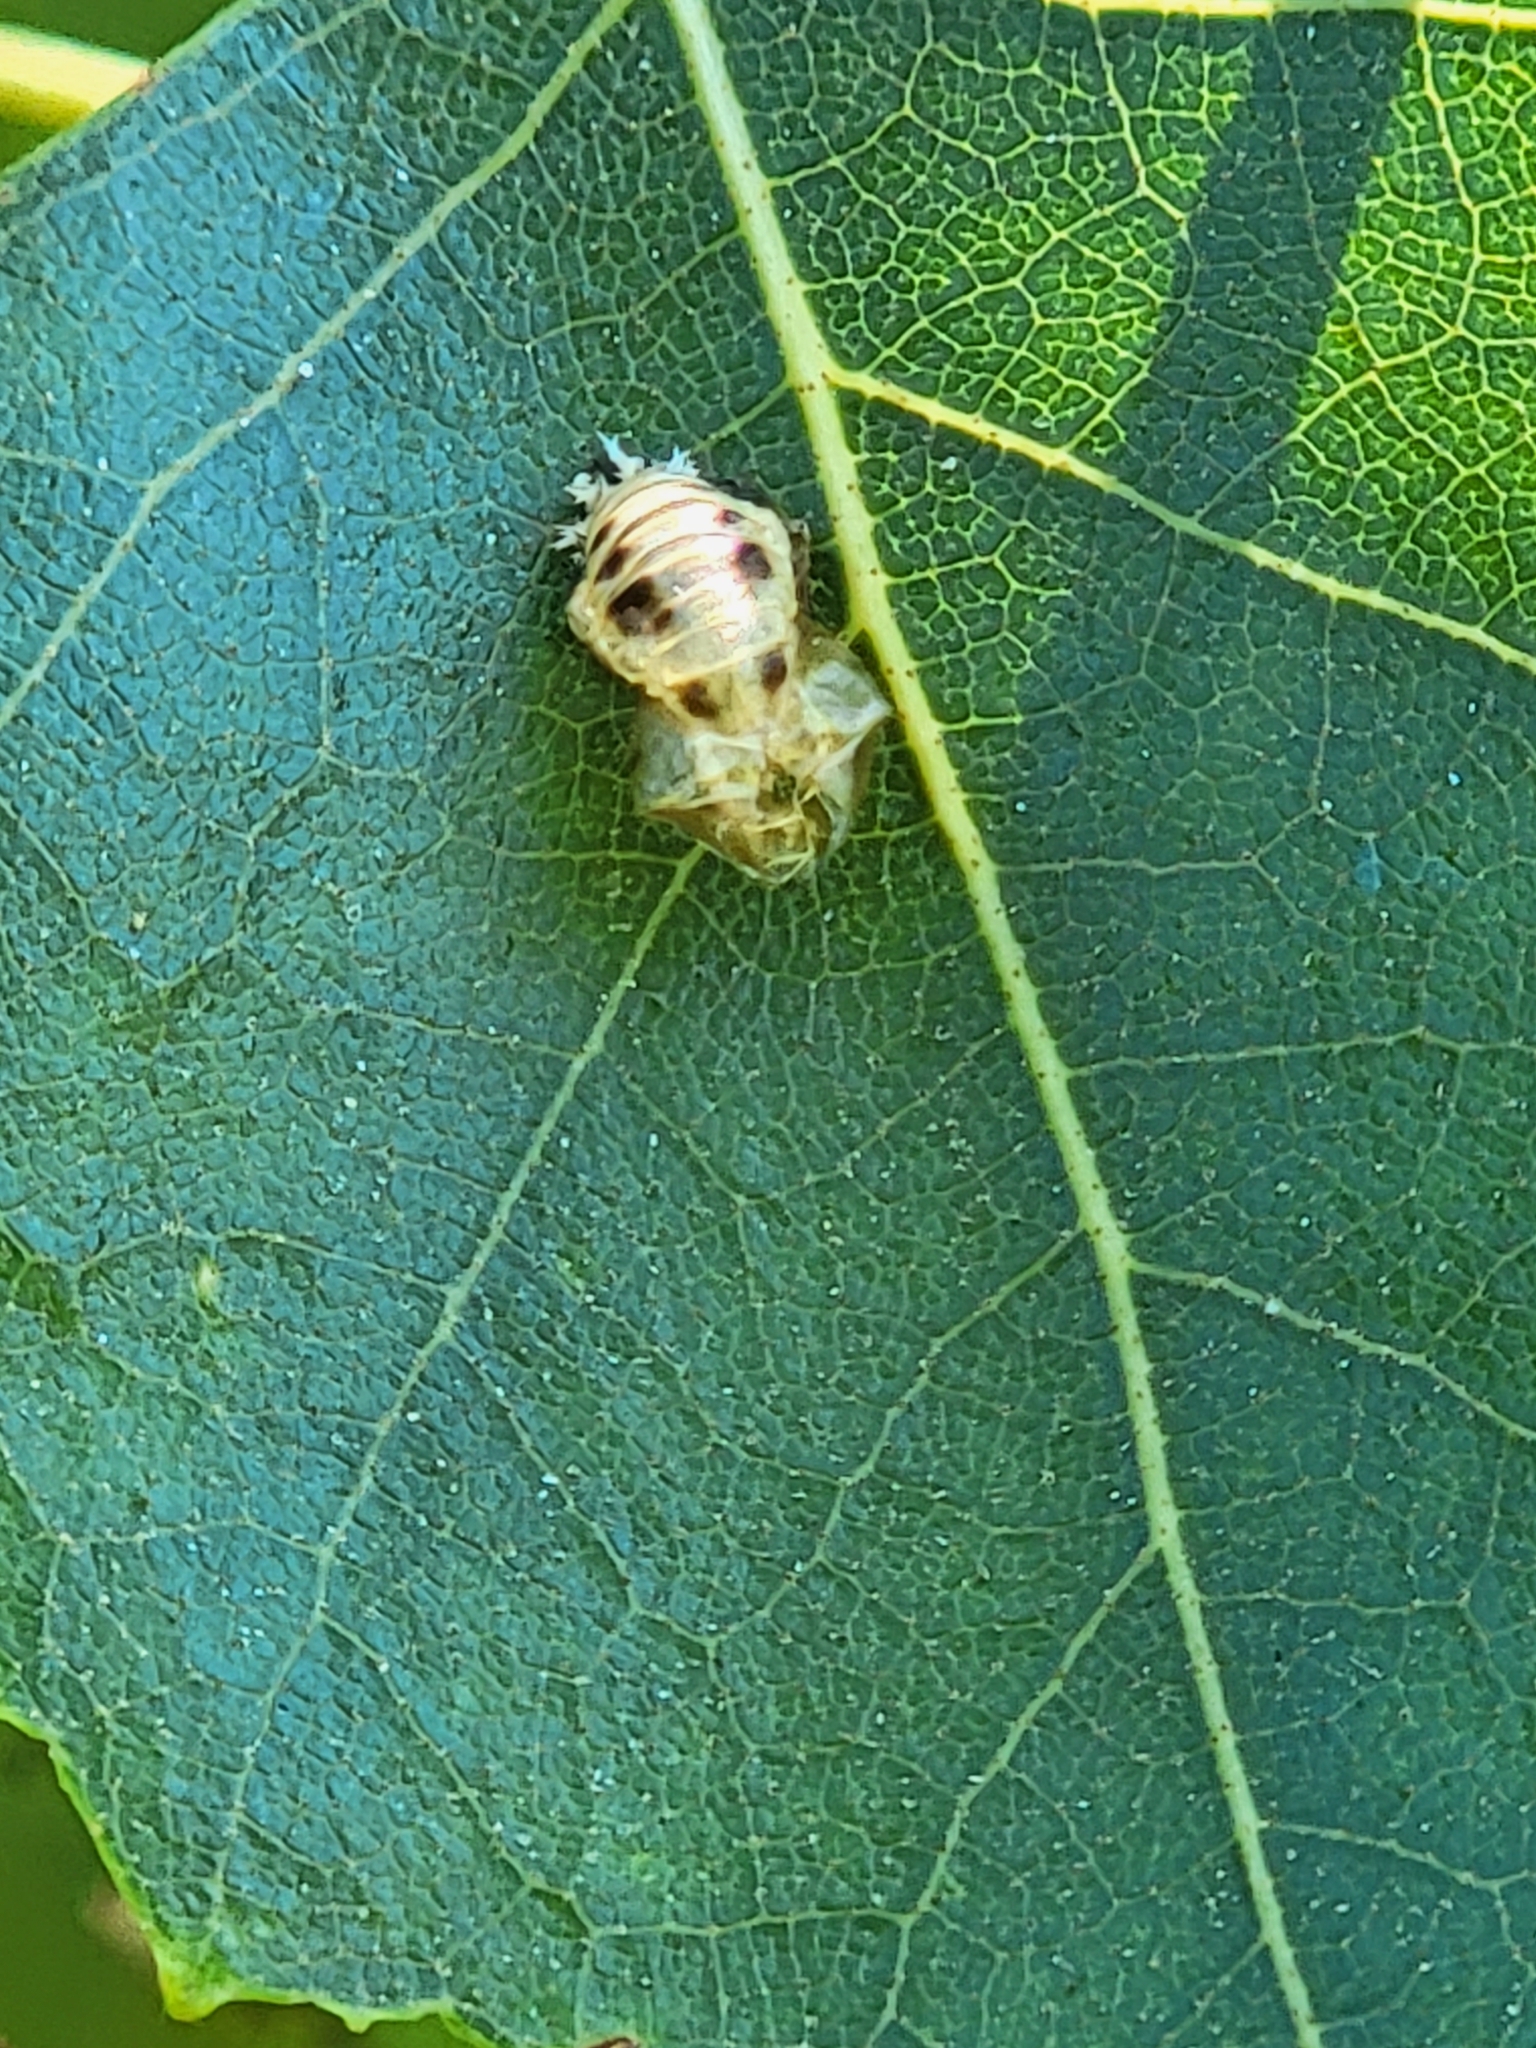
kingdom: Animalia
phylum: Arthropoda
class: Insecta
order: Coleoptera
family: Coccinellidae
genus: Harmonia
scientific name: Harmonia axyridis
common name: Harlequin ladybird
